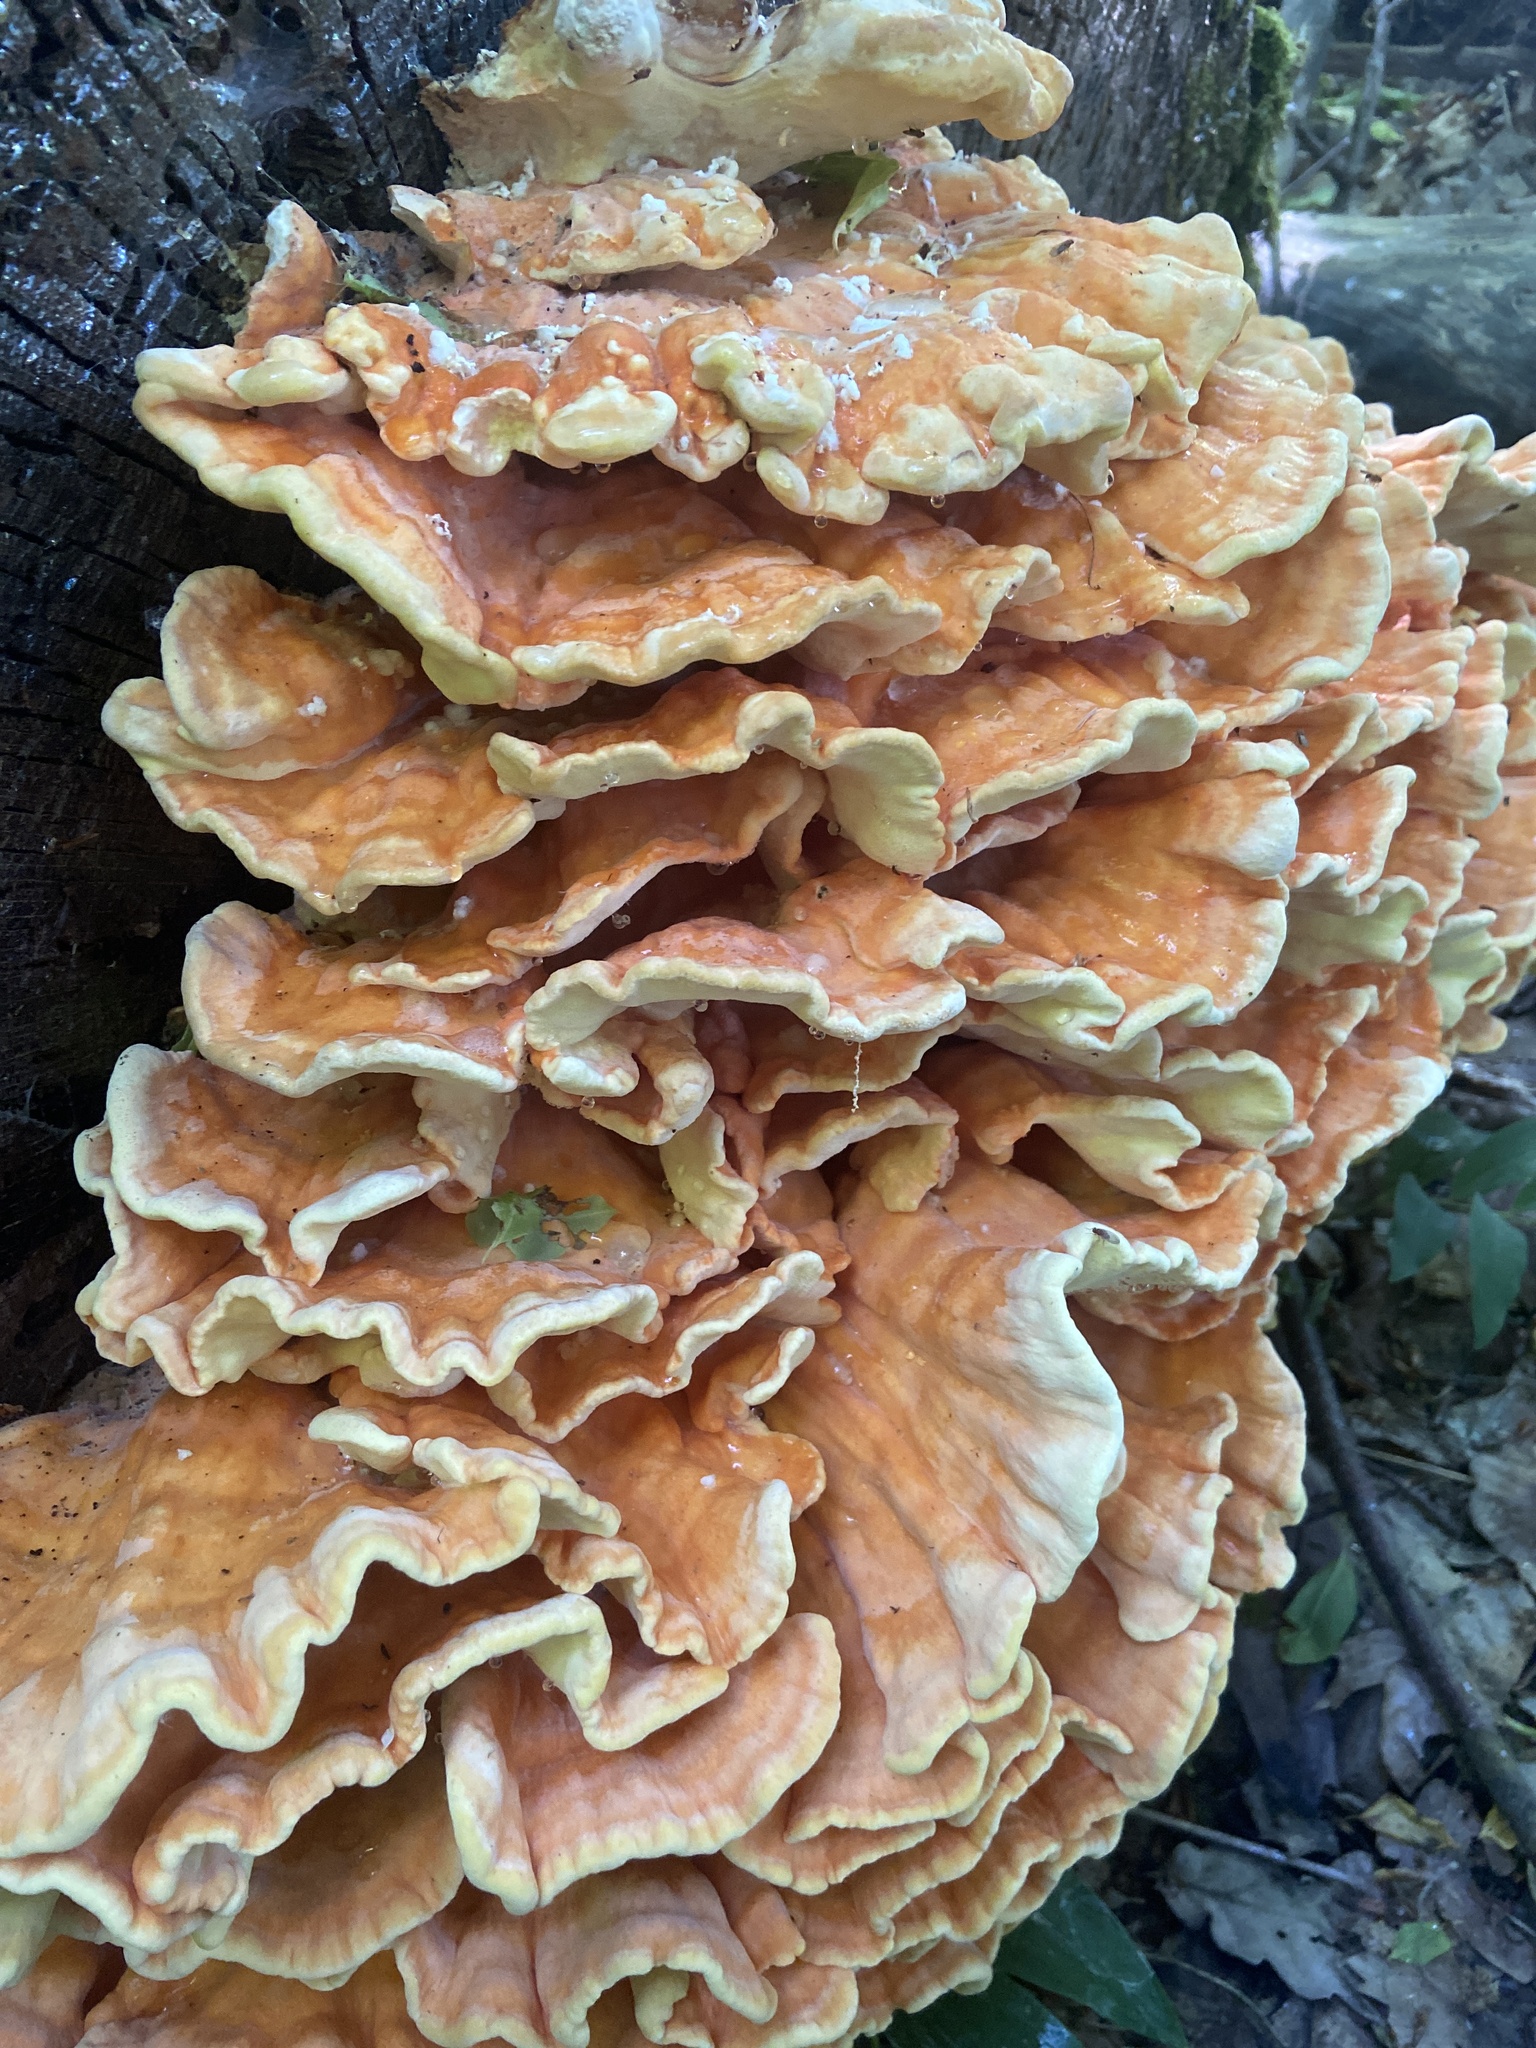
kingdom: Fungi
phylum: Basidiomycota
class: Agaricomycetes
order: Polyporales
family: Laetiporaceae
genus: Laetiporus
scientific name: Laetiporus sulphureus
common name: Chicken of the woods
